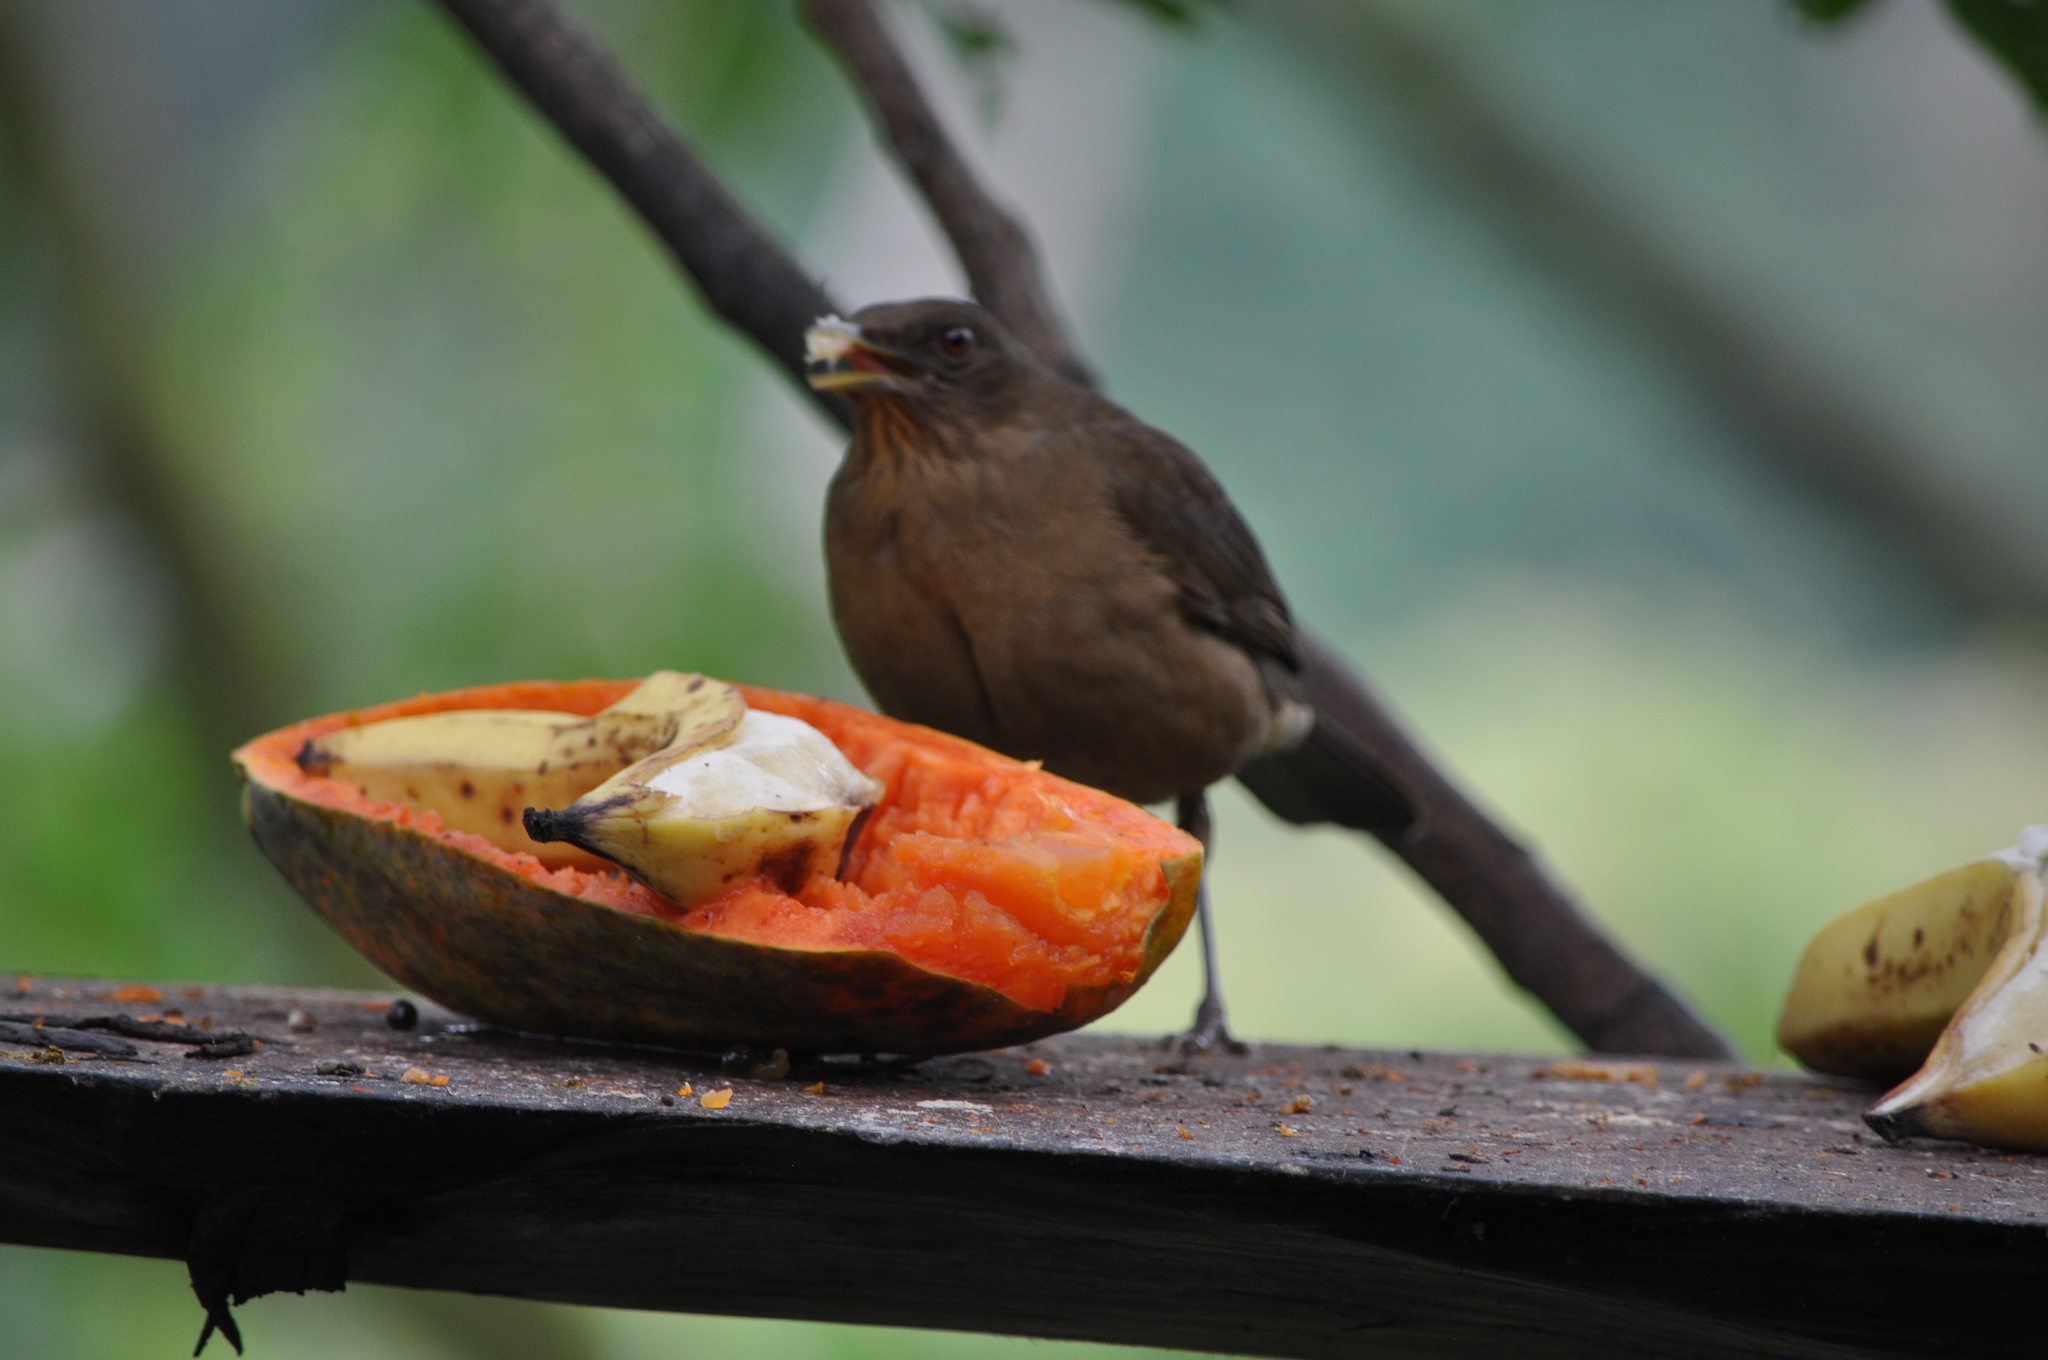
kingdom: Animalia
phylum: Chordata
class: Aves
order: Passeriformes
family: Turdidae
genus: Turdus
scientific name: Turdus grayi
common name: Clay-colored thrush
